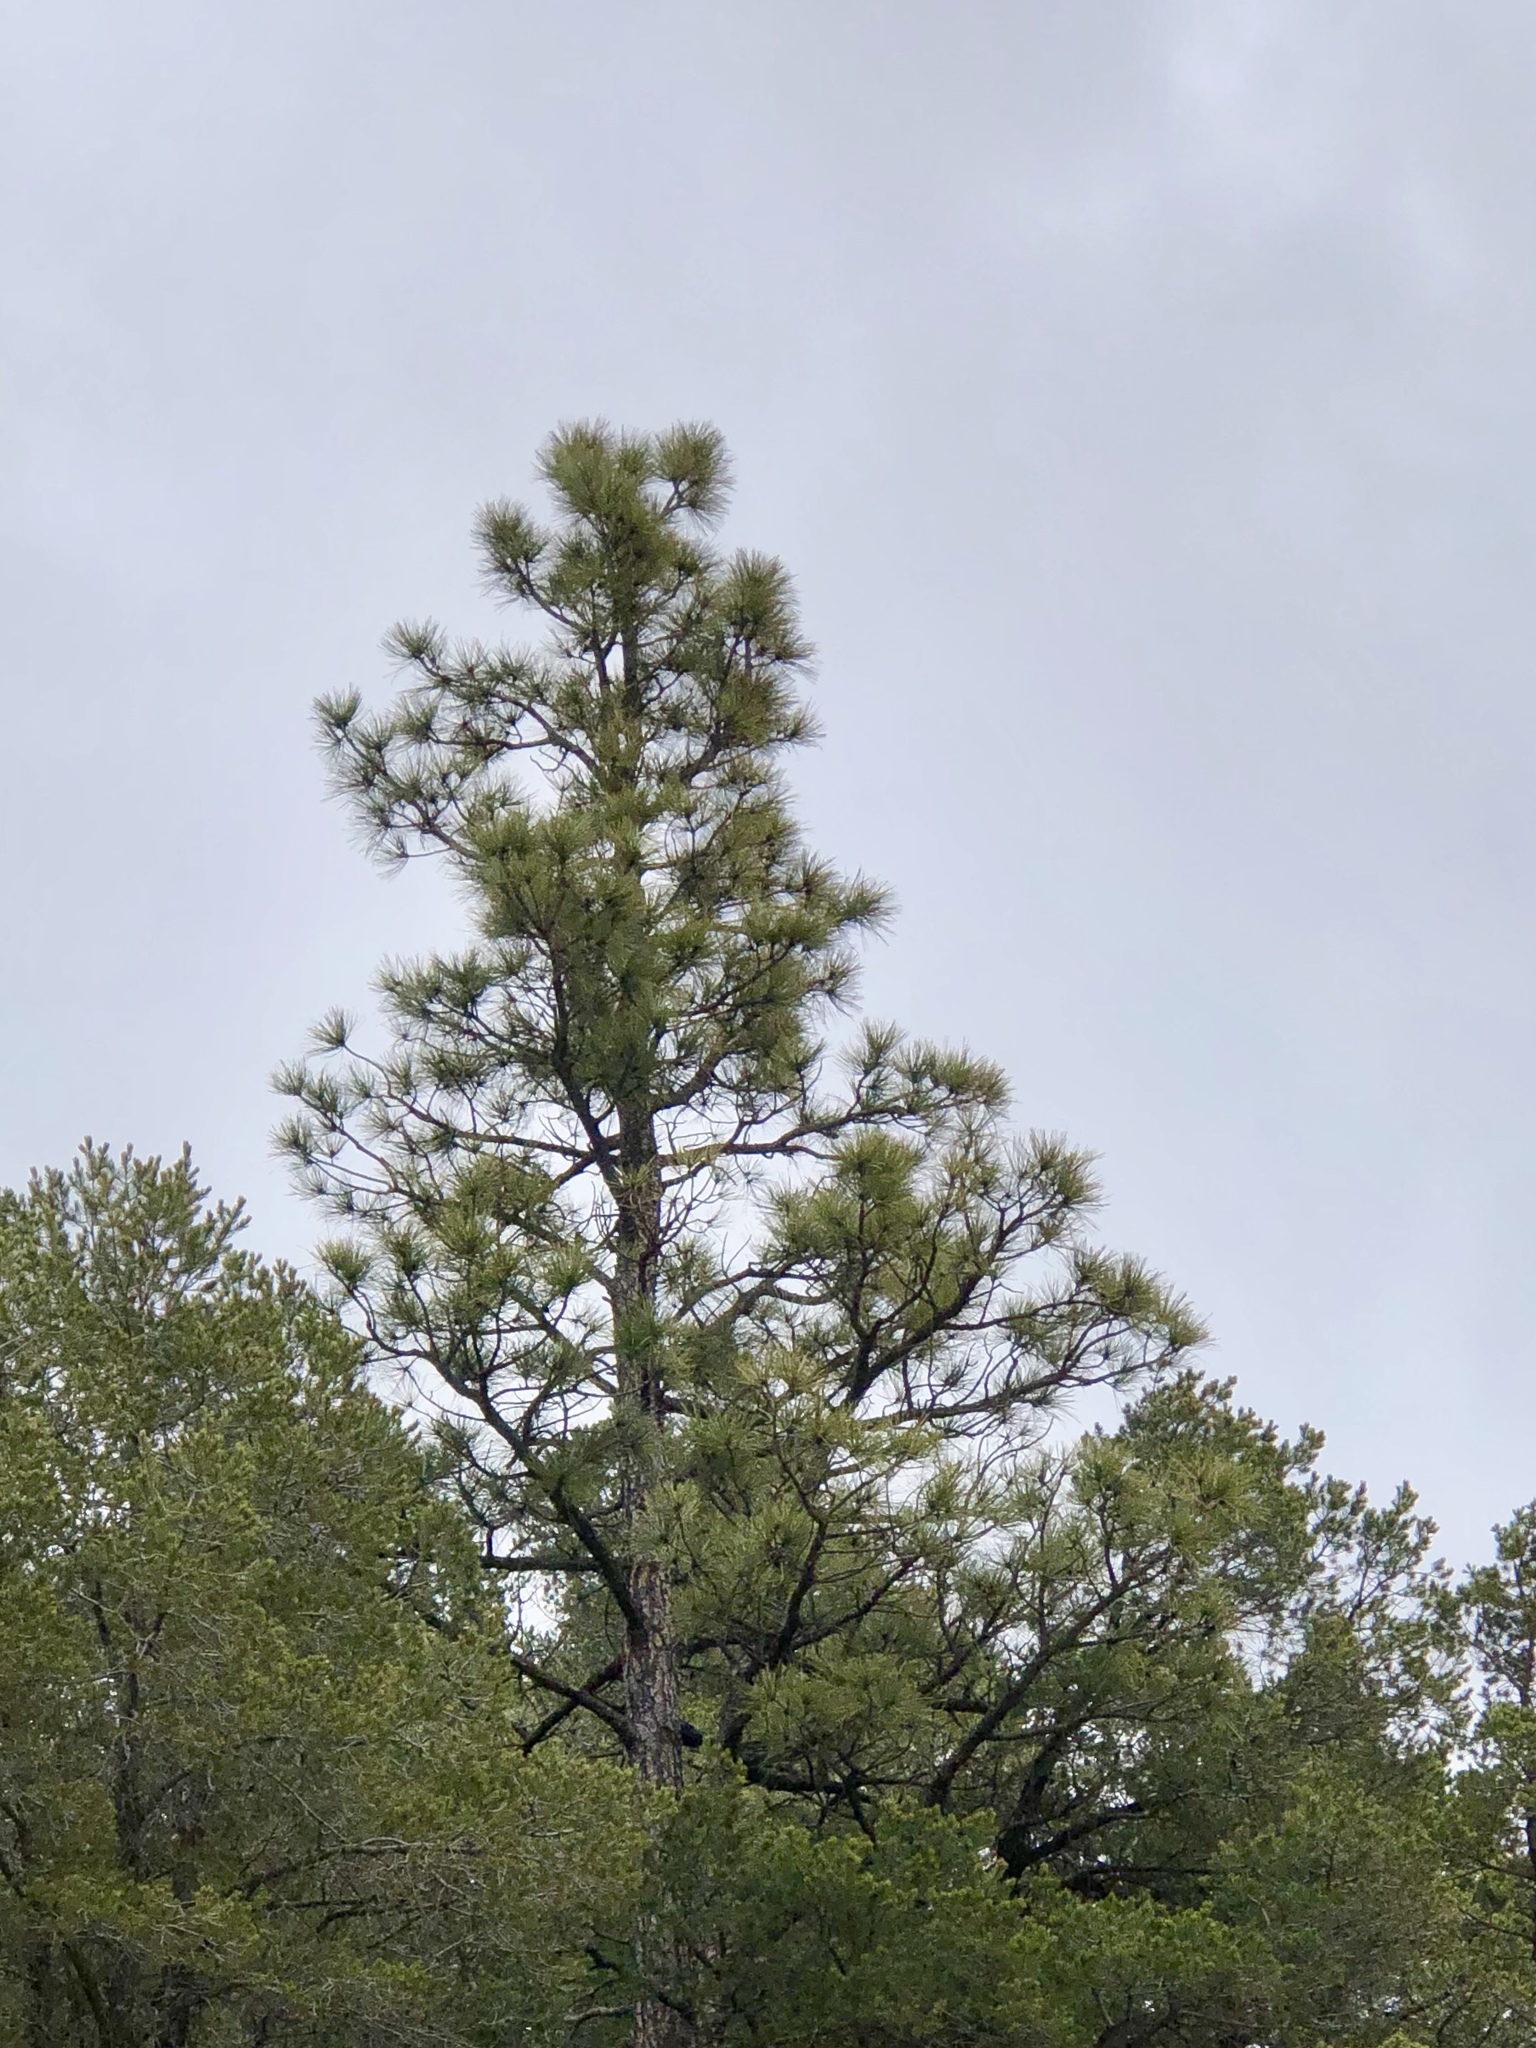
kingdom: Plantae
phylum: Tracheophyta
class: Pinopsida
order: Pinales
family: Pinaceae
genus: Pinus
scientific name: Pinus ponderosa
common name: Western yellow-pine
